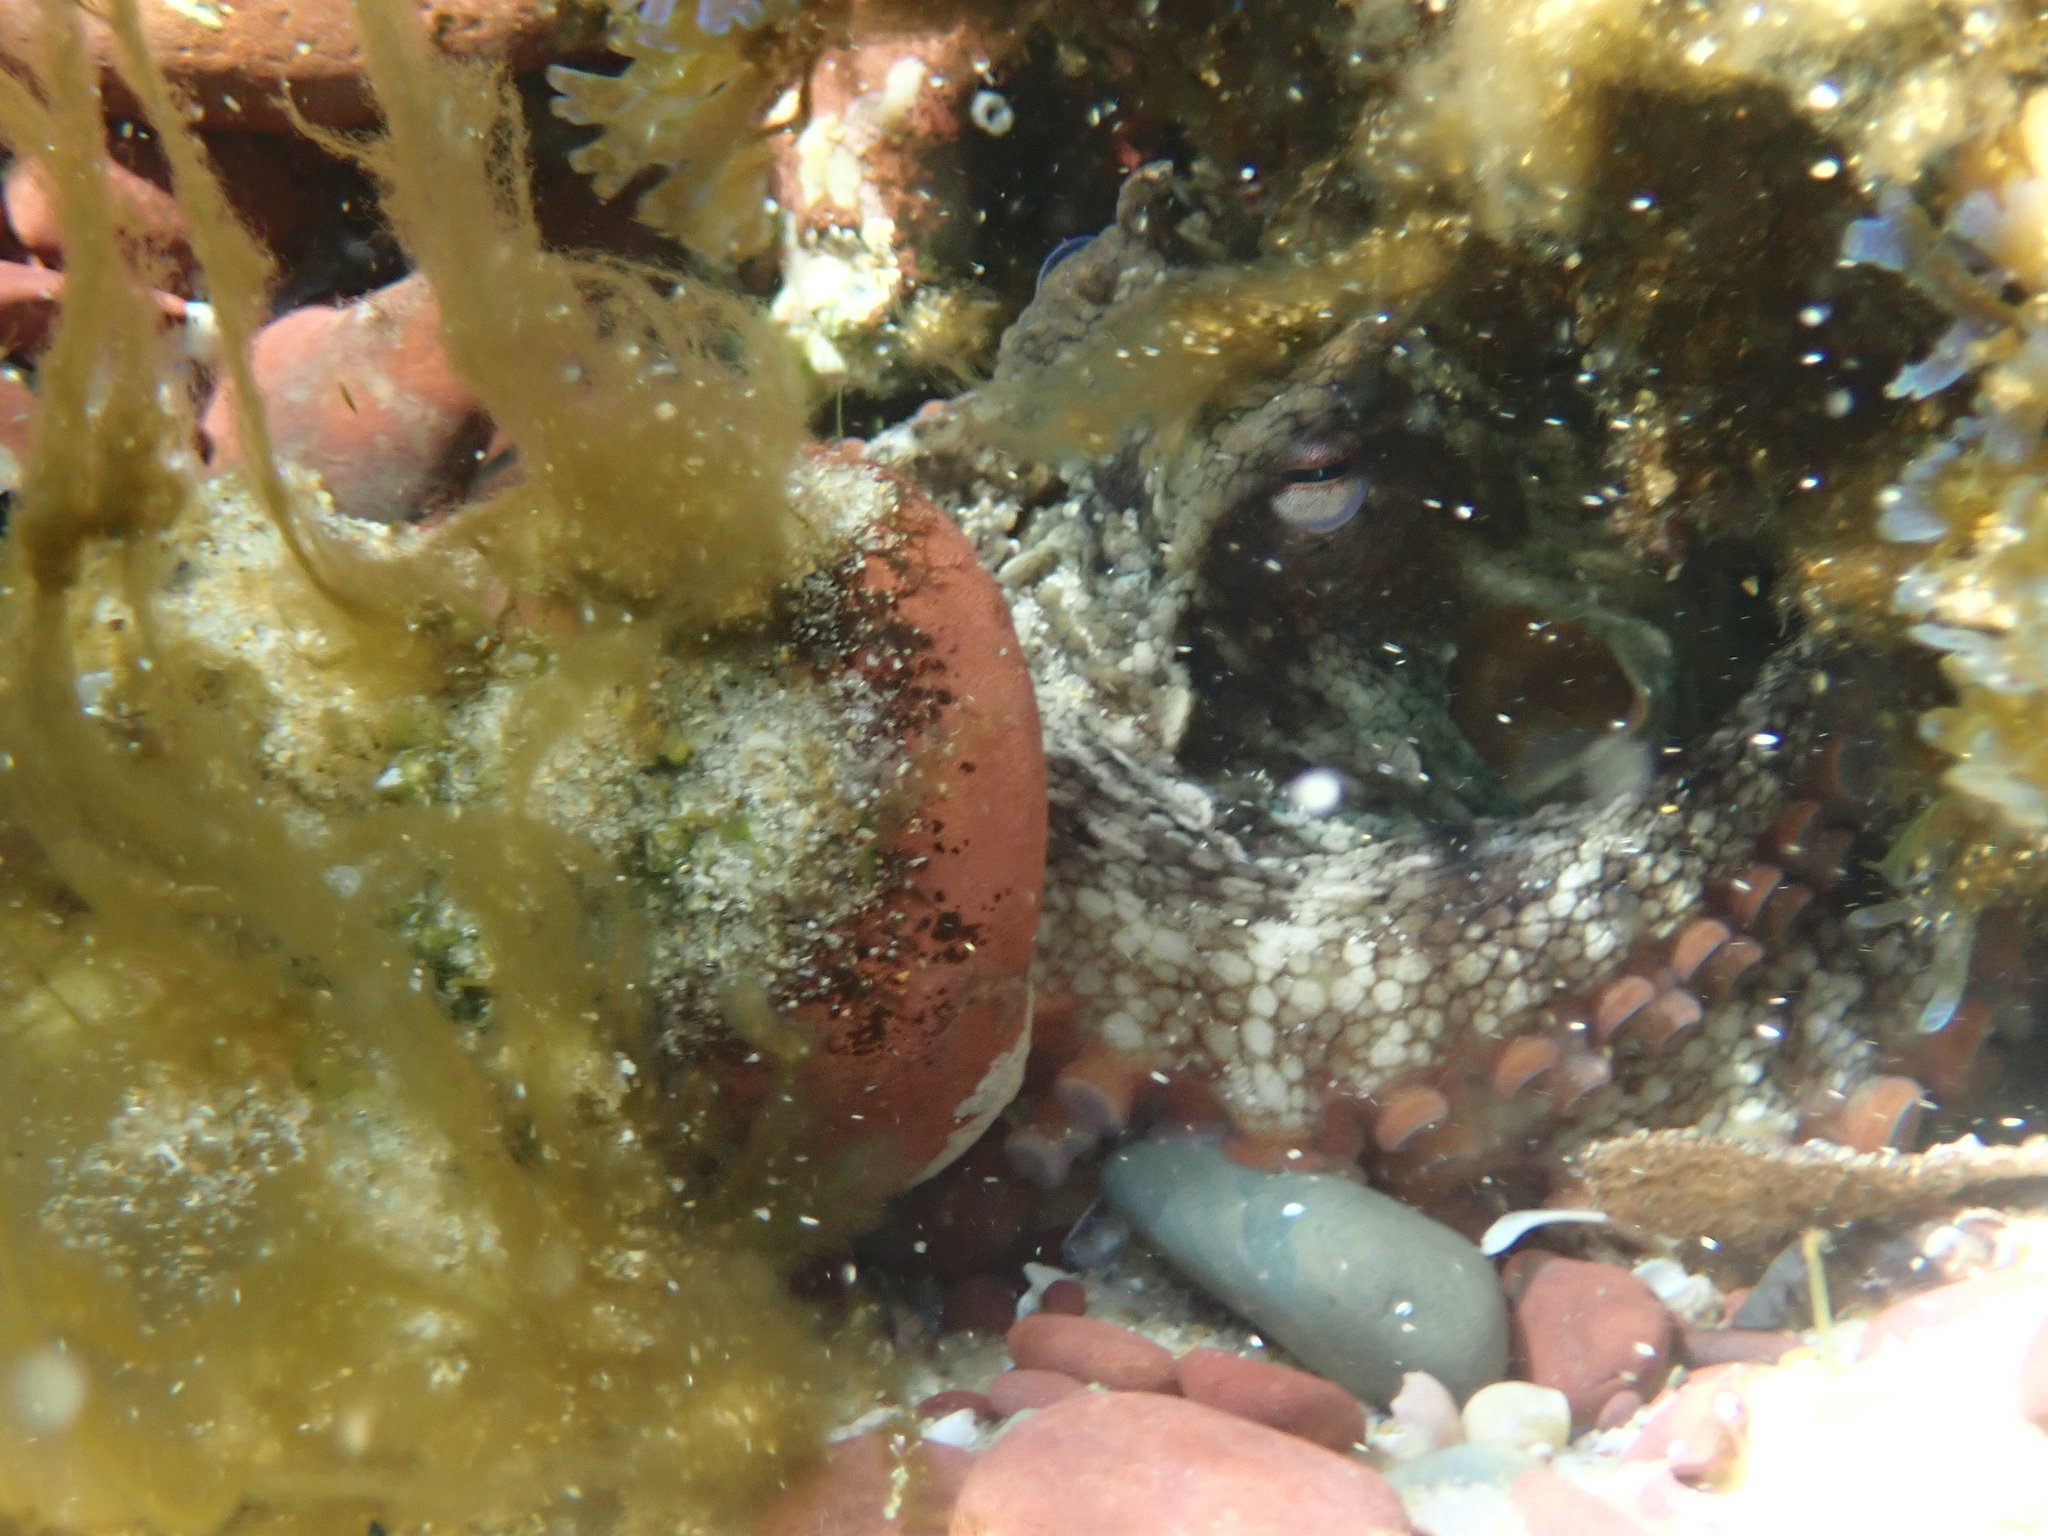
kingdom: Animalia
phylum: Mollusca
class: Cephalopoda
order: Octopoda
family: Octopodidae
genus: Octopus
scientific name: Octopus tetricus
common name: Sydney octopus
